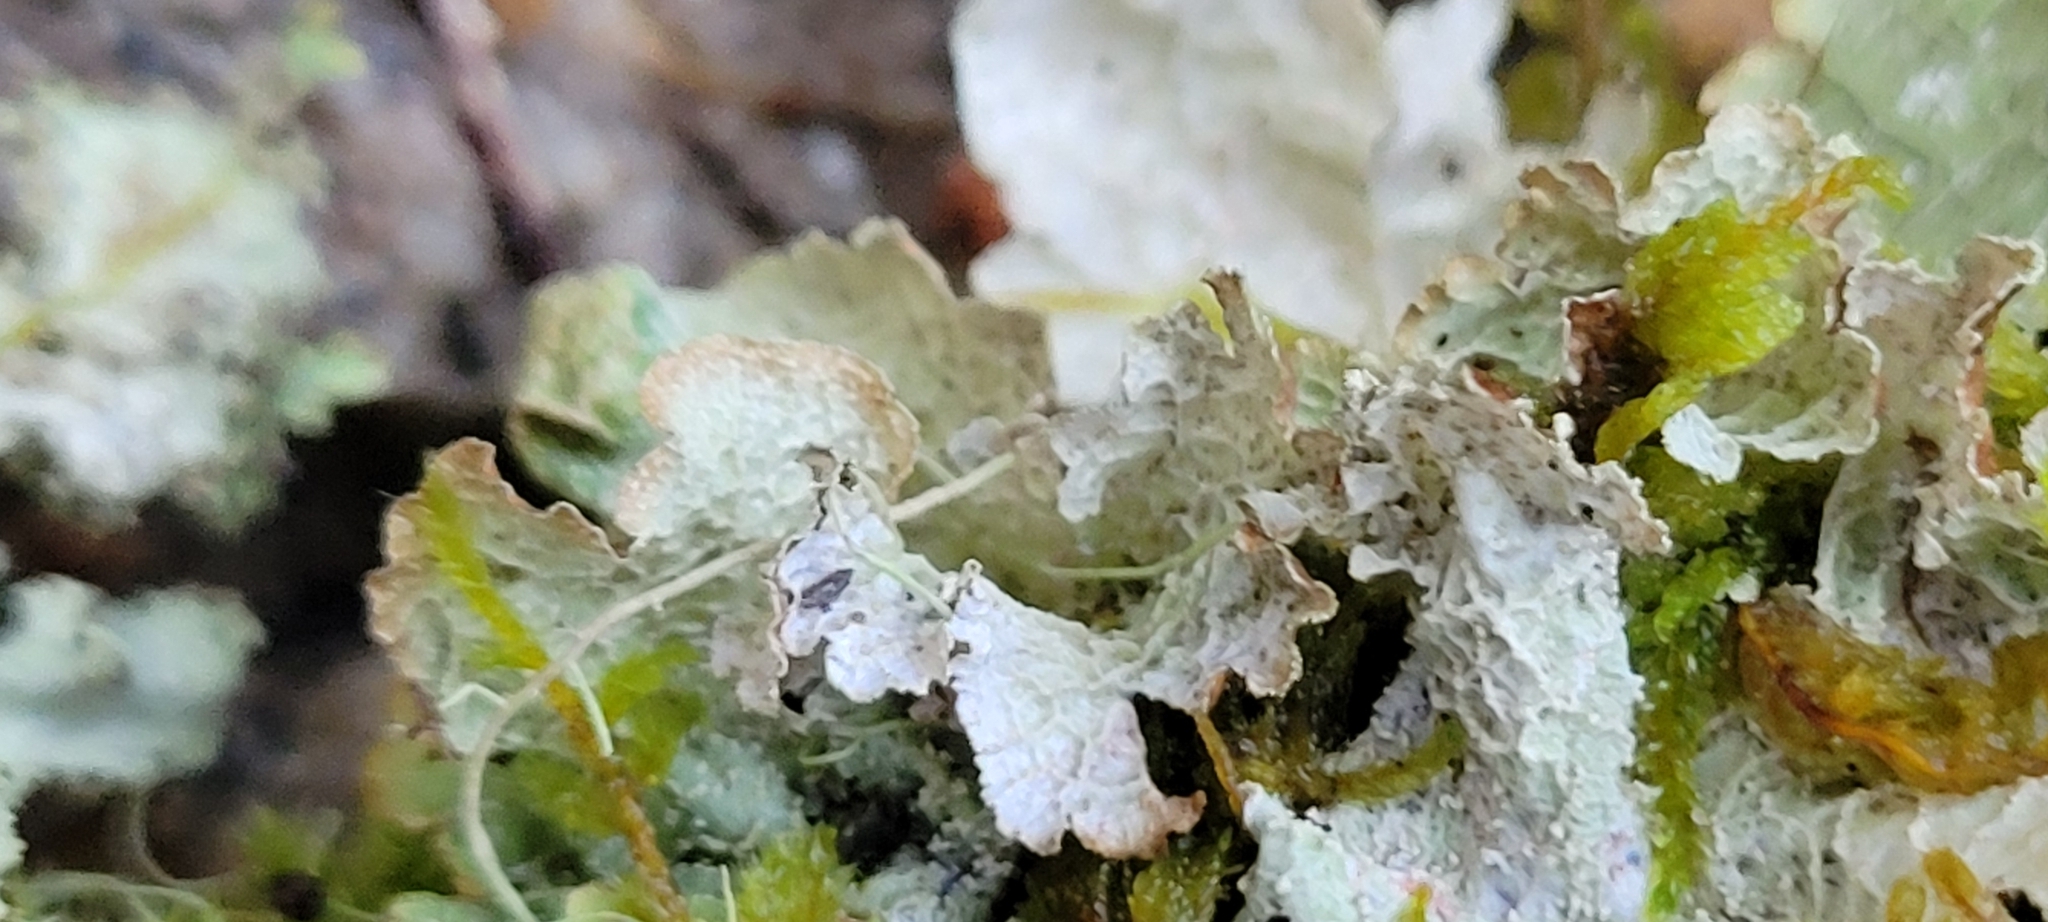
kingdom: Fungi
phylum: Ascomycota
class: Lecanoromycetes
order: Lecanorales
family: Parmeliaceae
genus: Platismatia
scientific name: Platismatia norvegica
